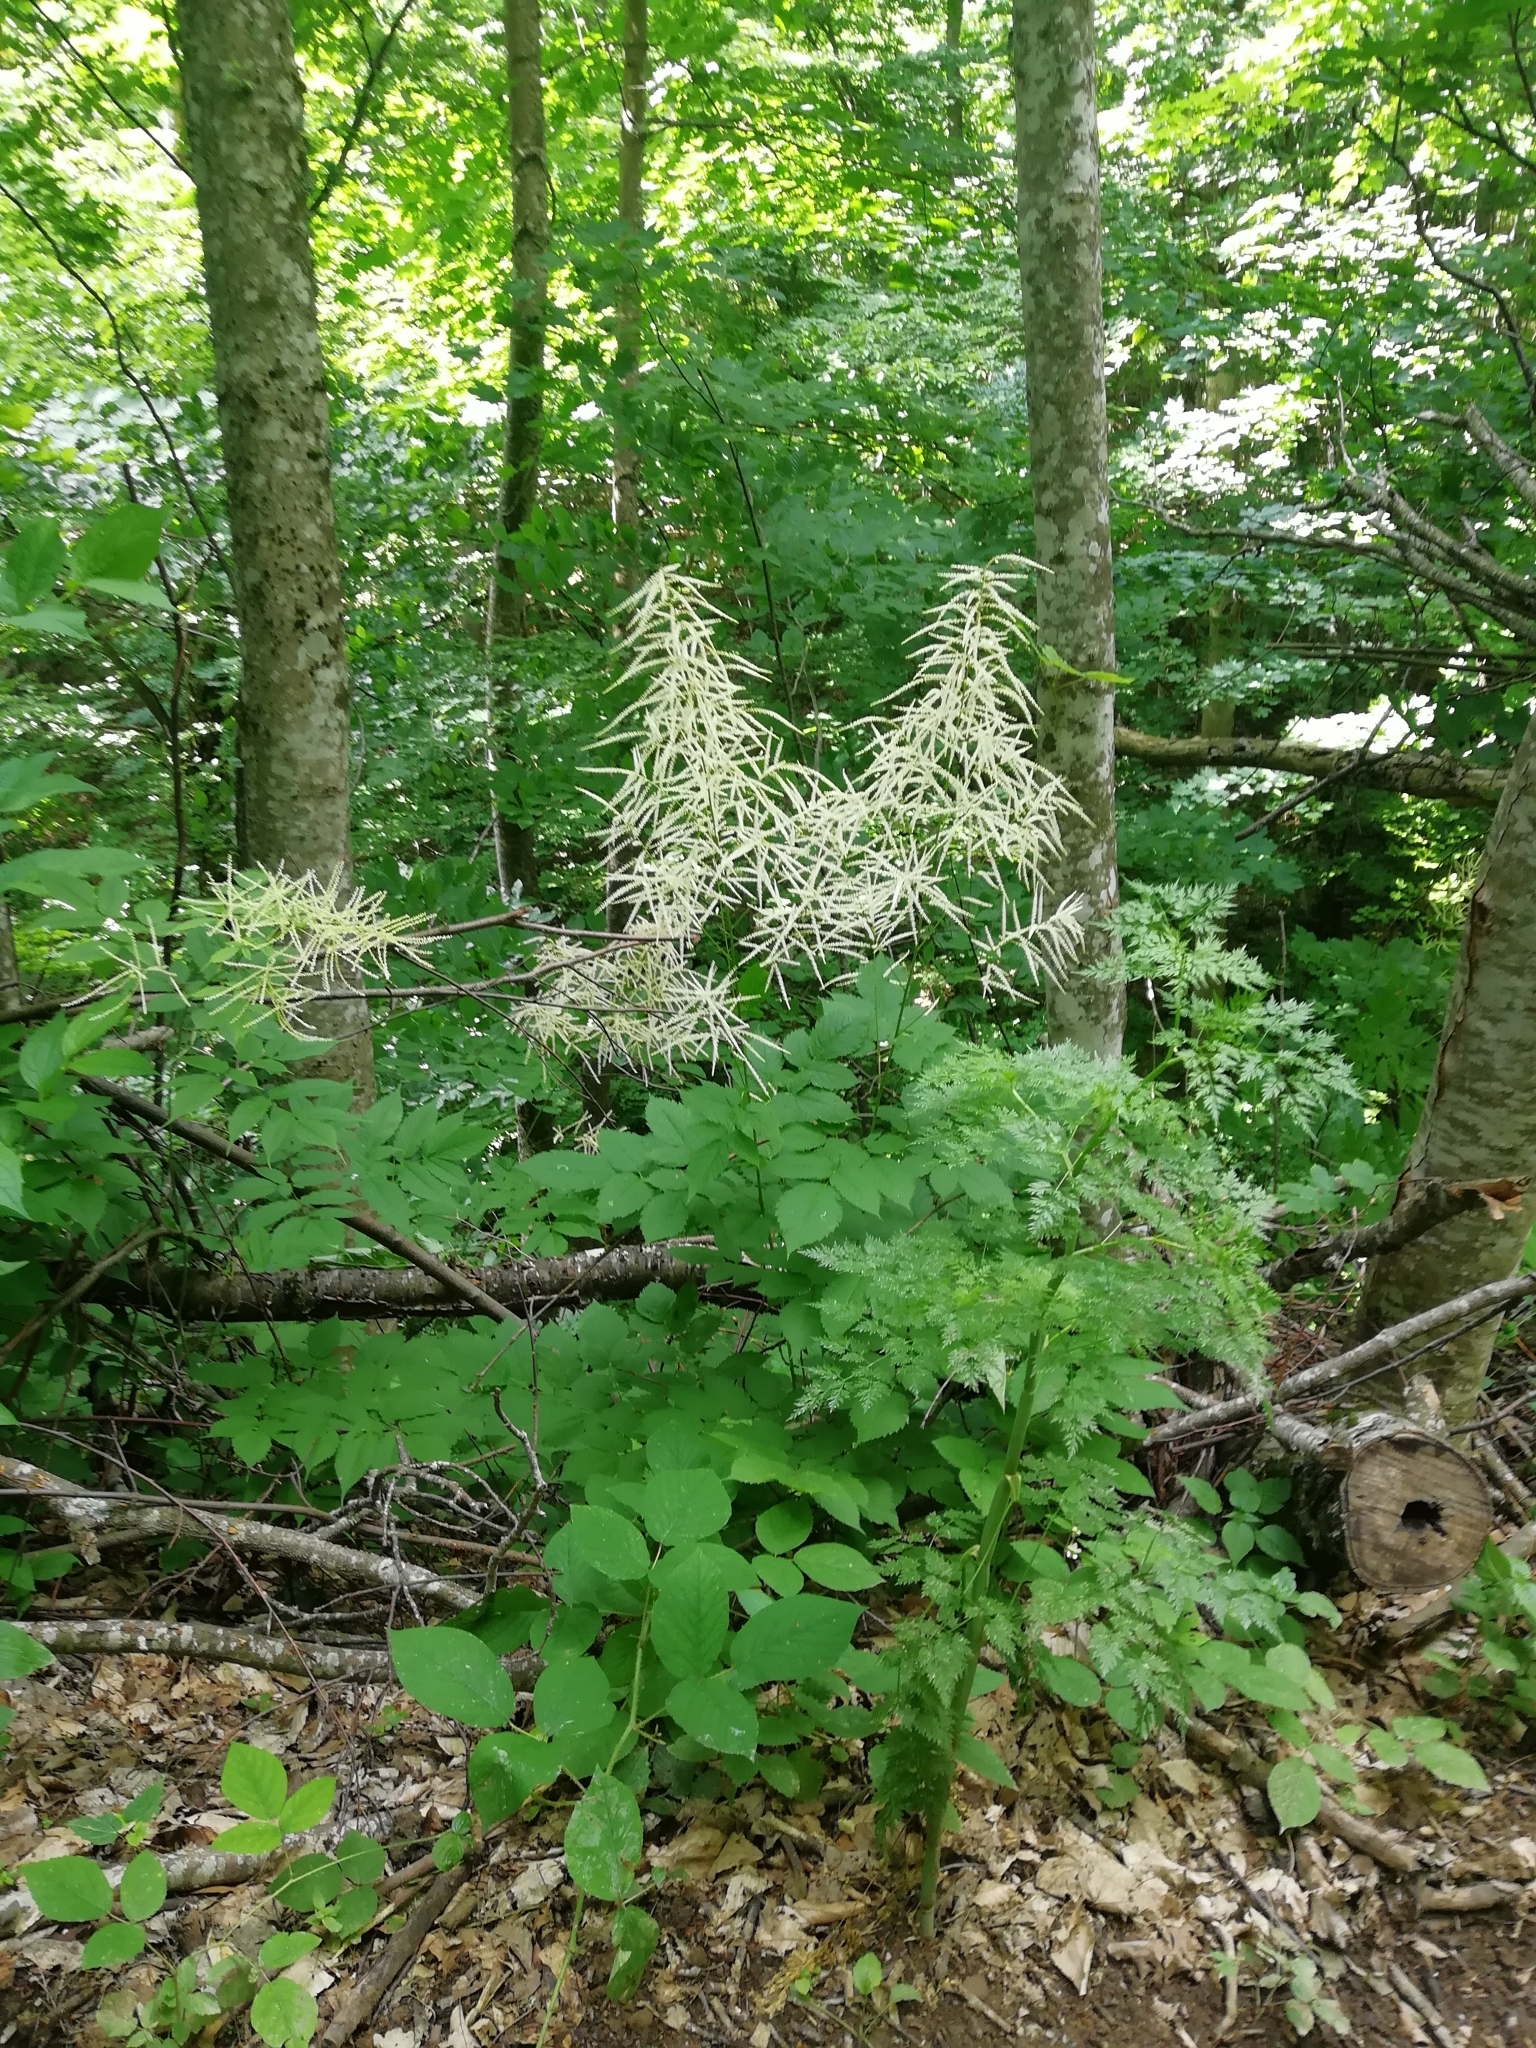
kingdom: Plantae
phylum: Tracheophyta
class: Magnoliopsida
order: Rosales
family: Rosaceae
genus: Aruncus
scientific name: Aruncus sylvester
